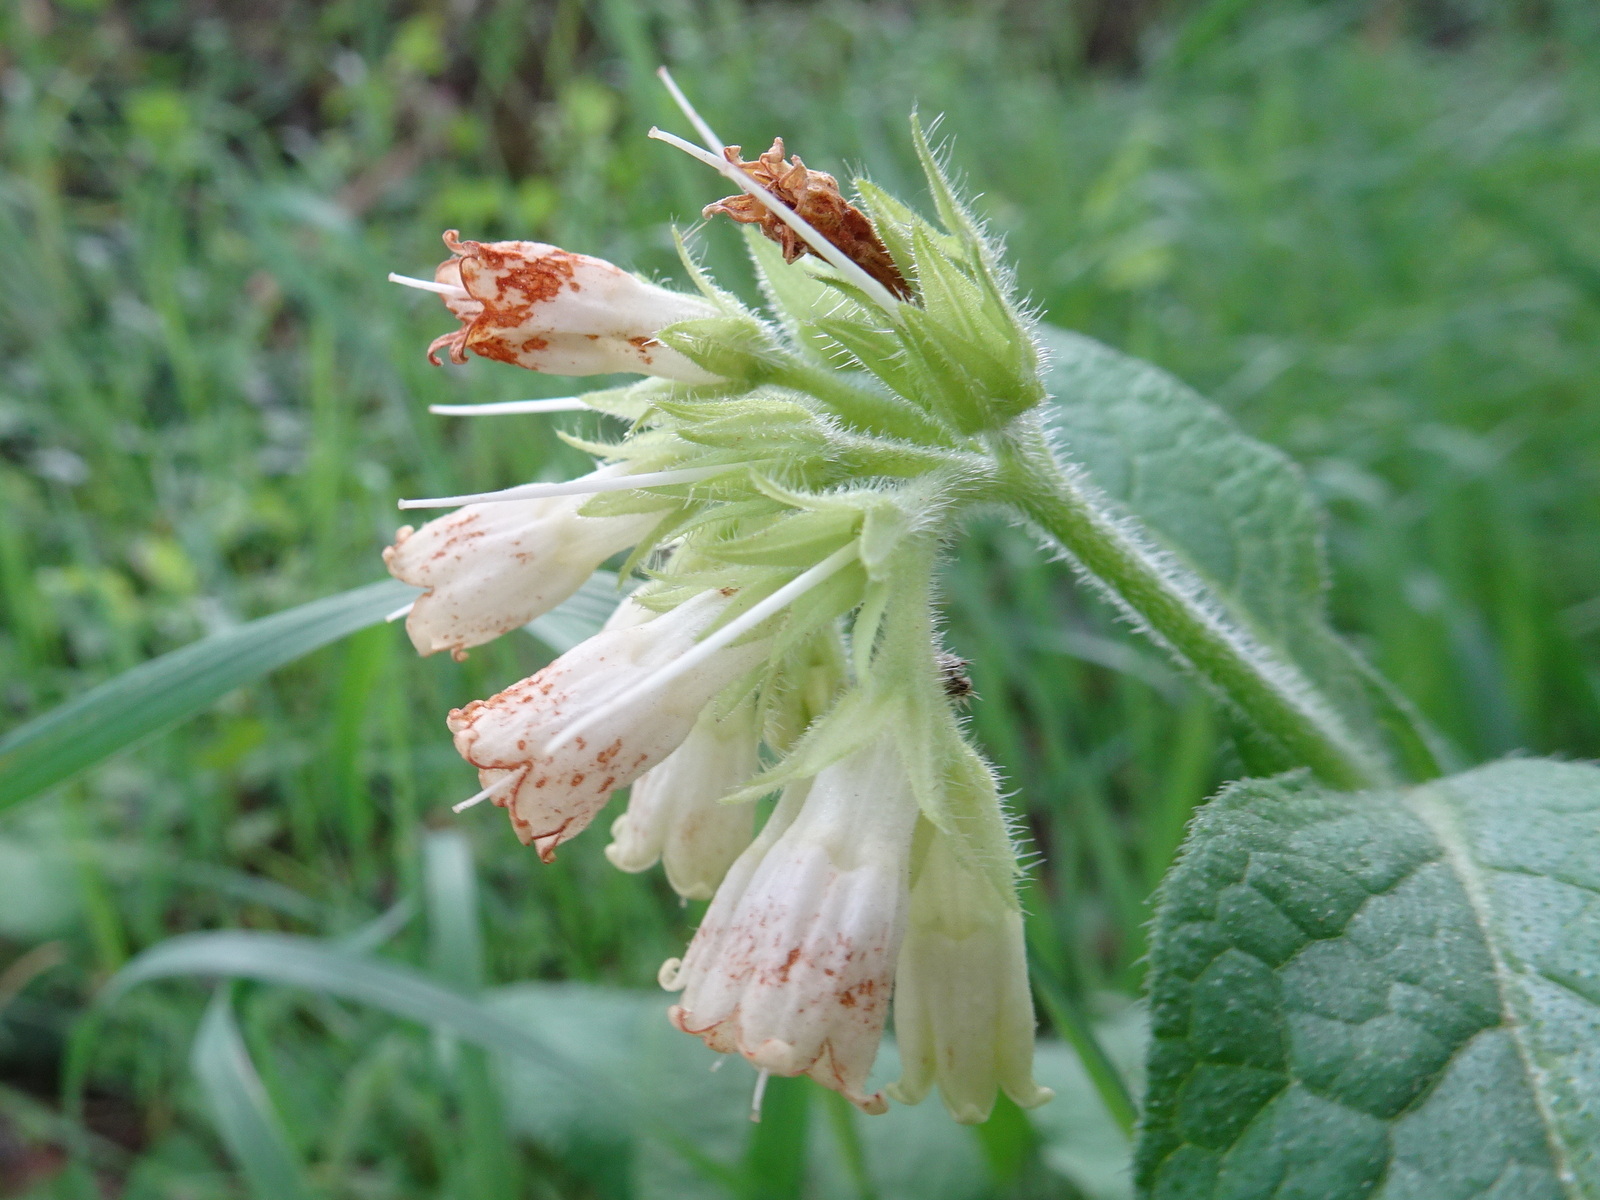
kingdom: Plantae
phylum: Tracheophyta
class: Magnoliopsida
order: Boraginales
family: Boraginaceae
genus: Symphytum
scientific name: Symphytum tuberosum
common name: Tuberous comfrey
